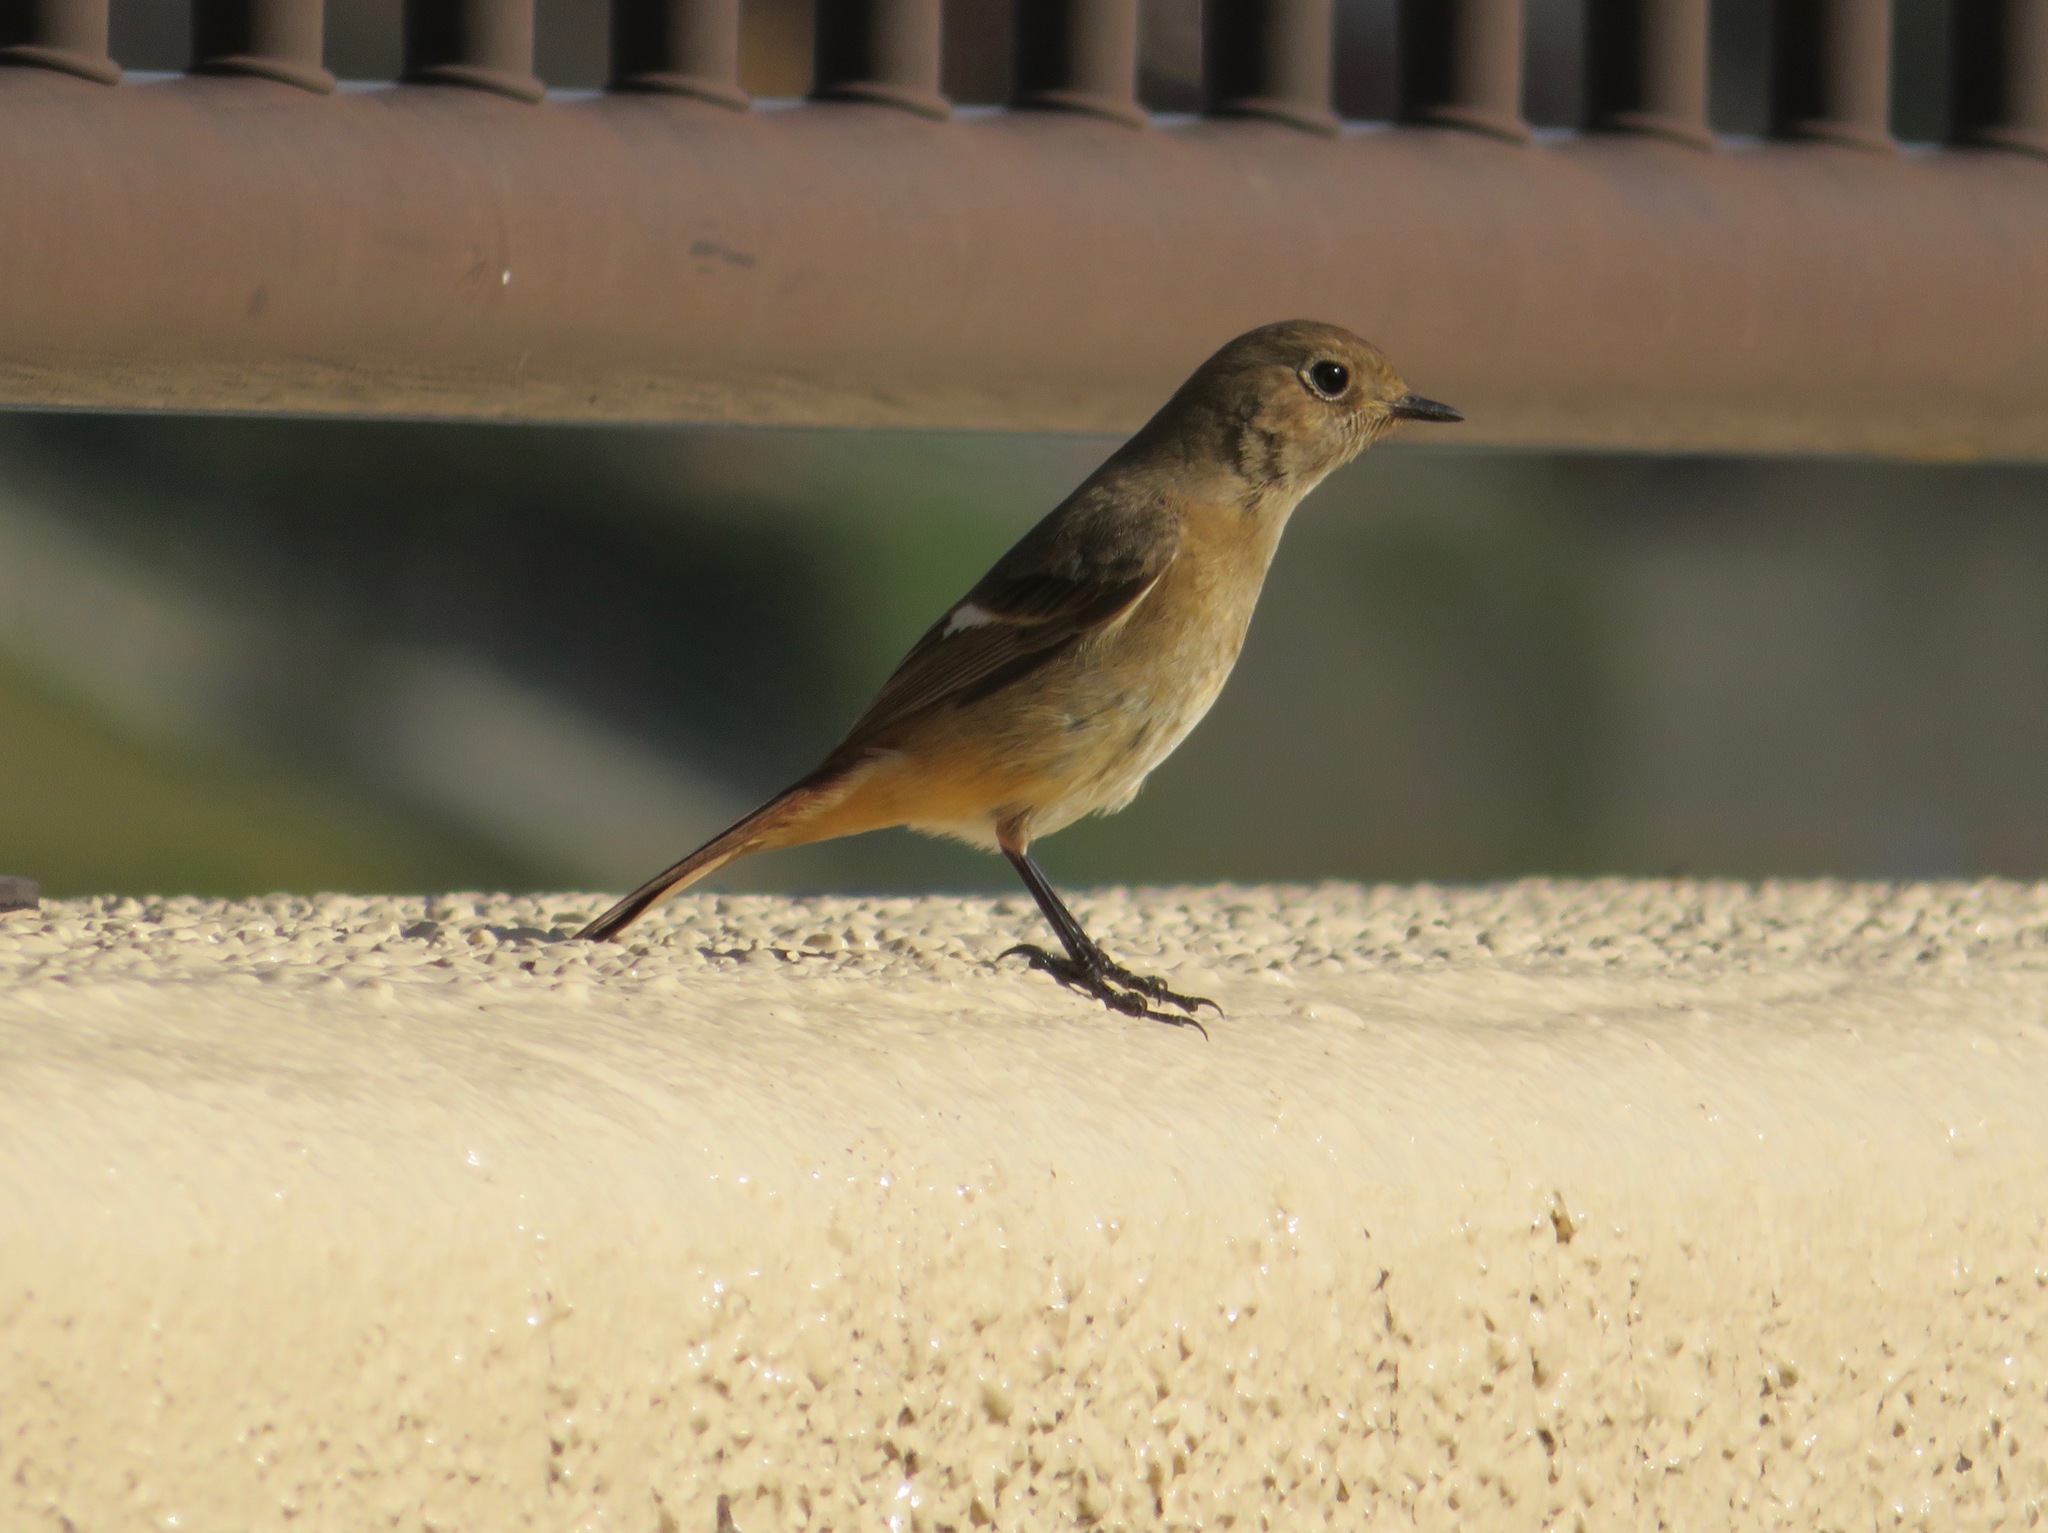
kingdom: Animalia
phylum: Chordata
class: Aves
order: Passeriformes
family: Muscicapidae
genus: Phoenicurus
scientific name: Phoenicurus auroreus
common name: Daurian redstart
